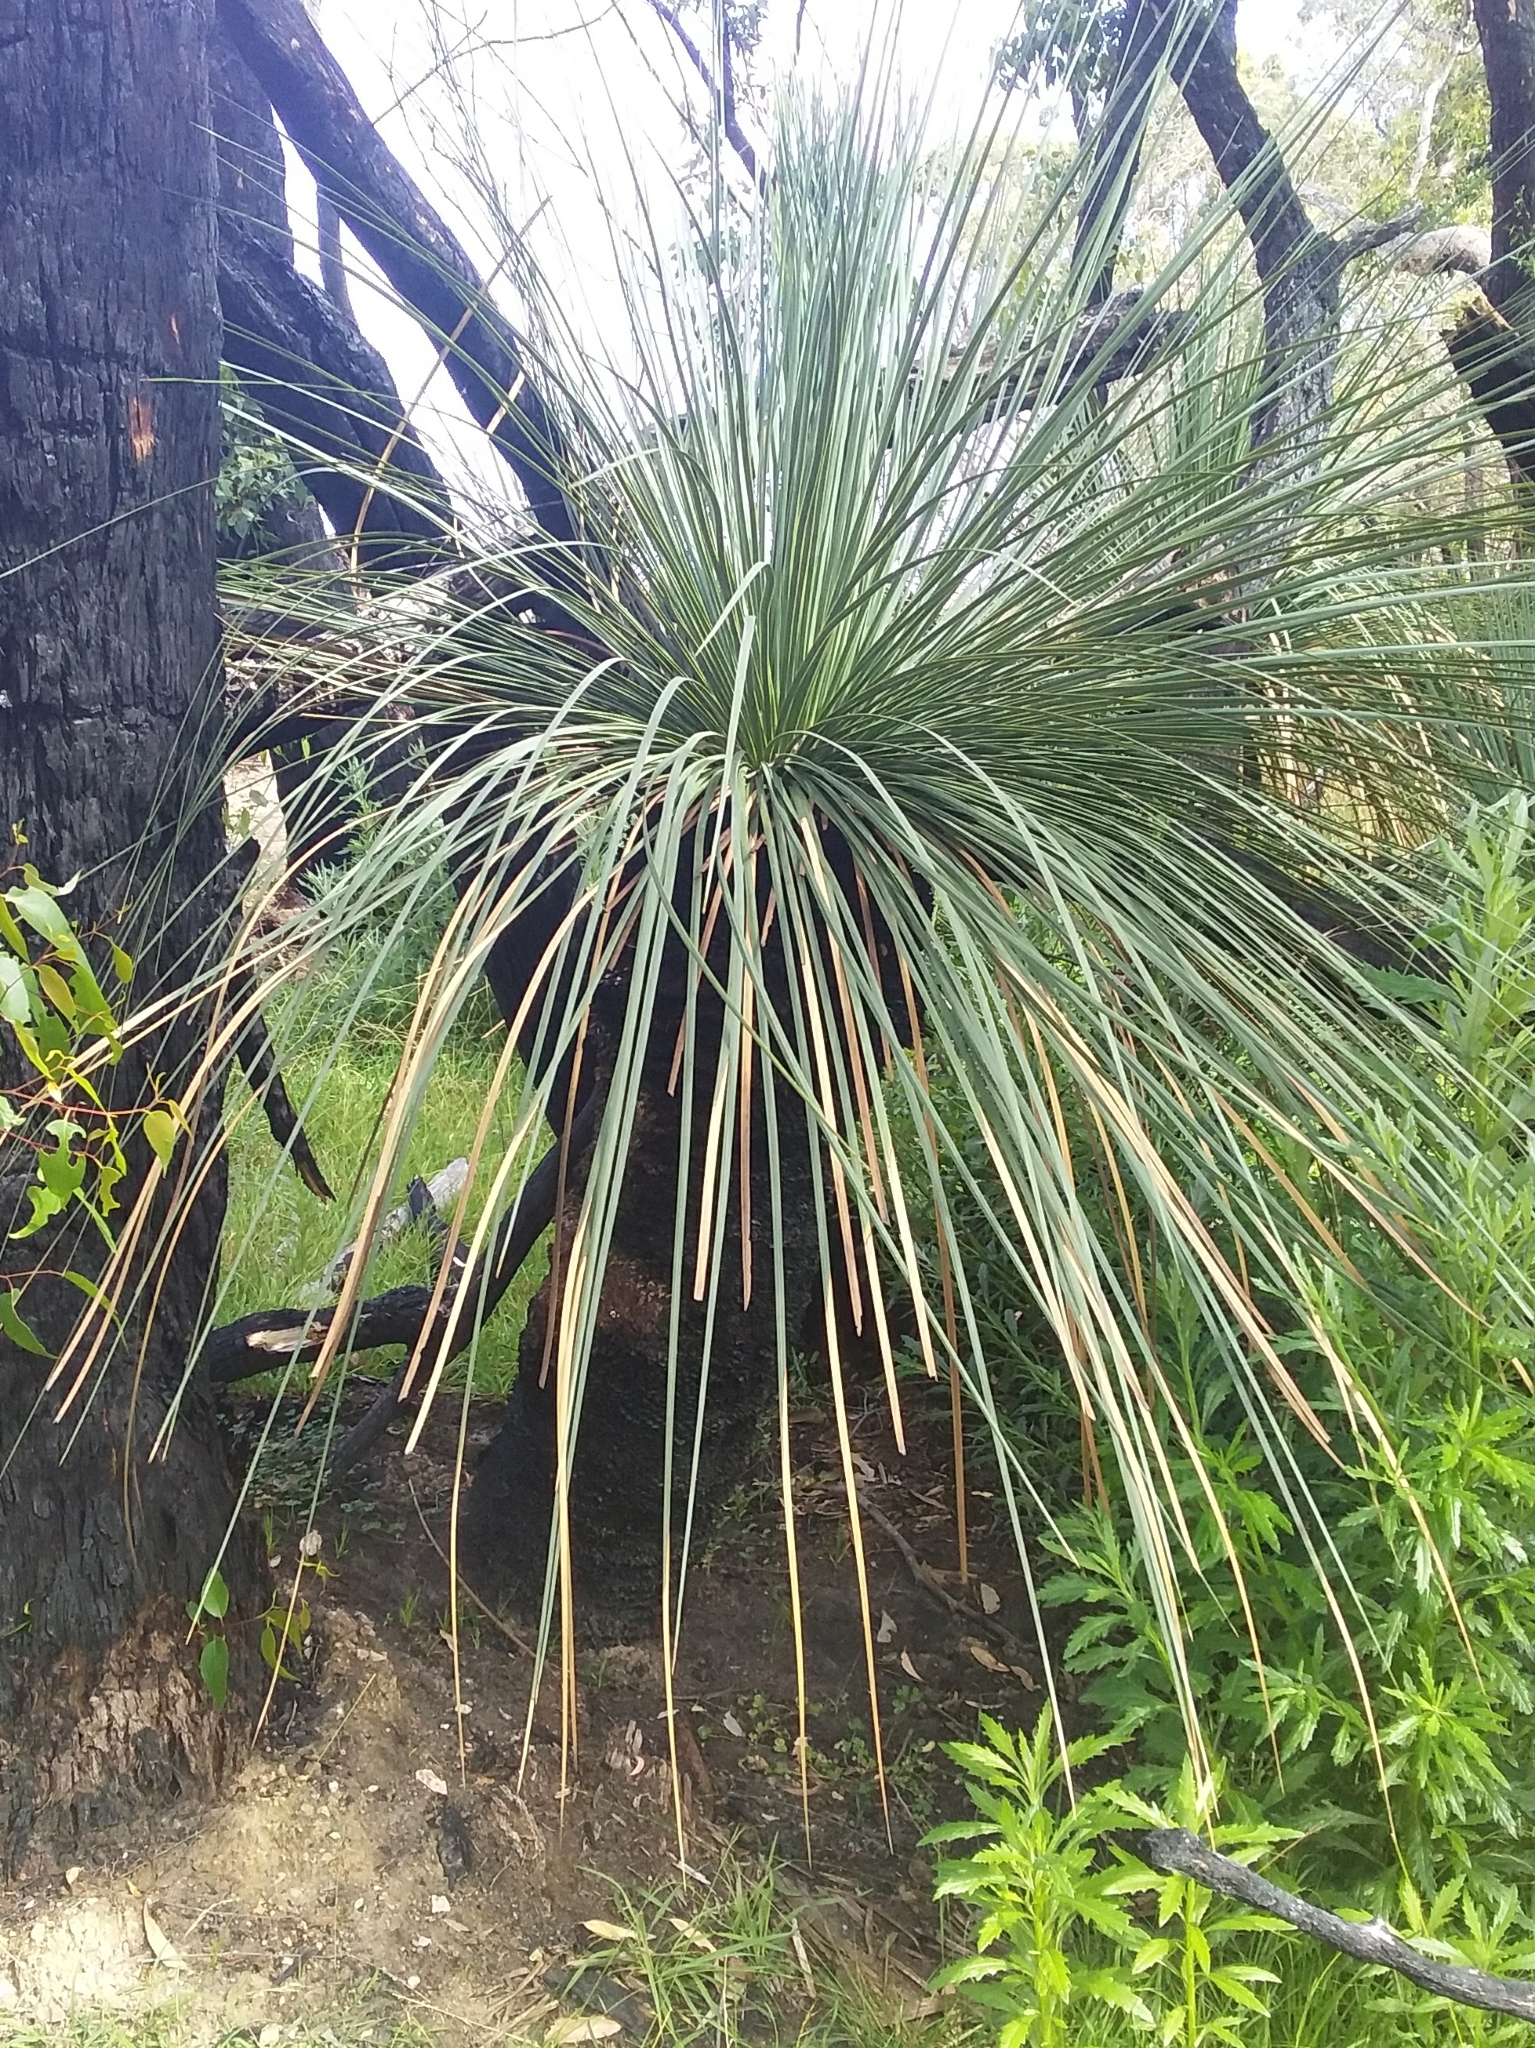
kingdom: Plantae
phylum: Tracheophyta
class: Liliopsida
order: Asparagales
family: Asphodelaceae
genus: Xanthorrhoea
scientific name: Xanthorrhoea semiplana
